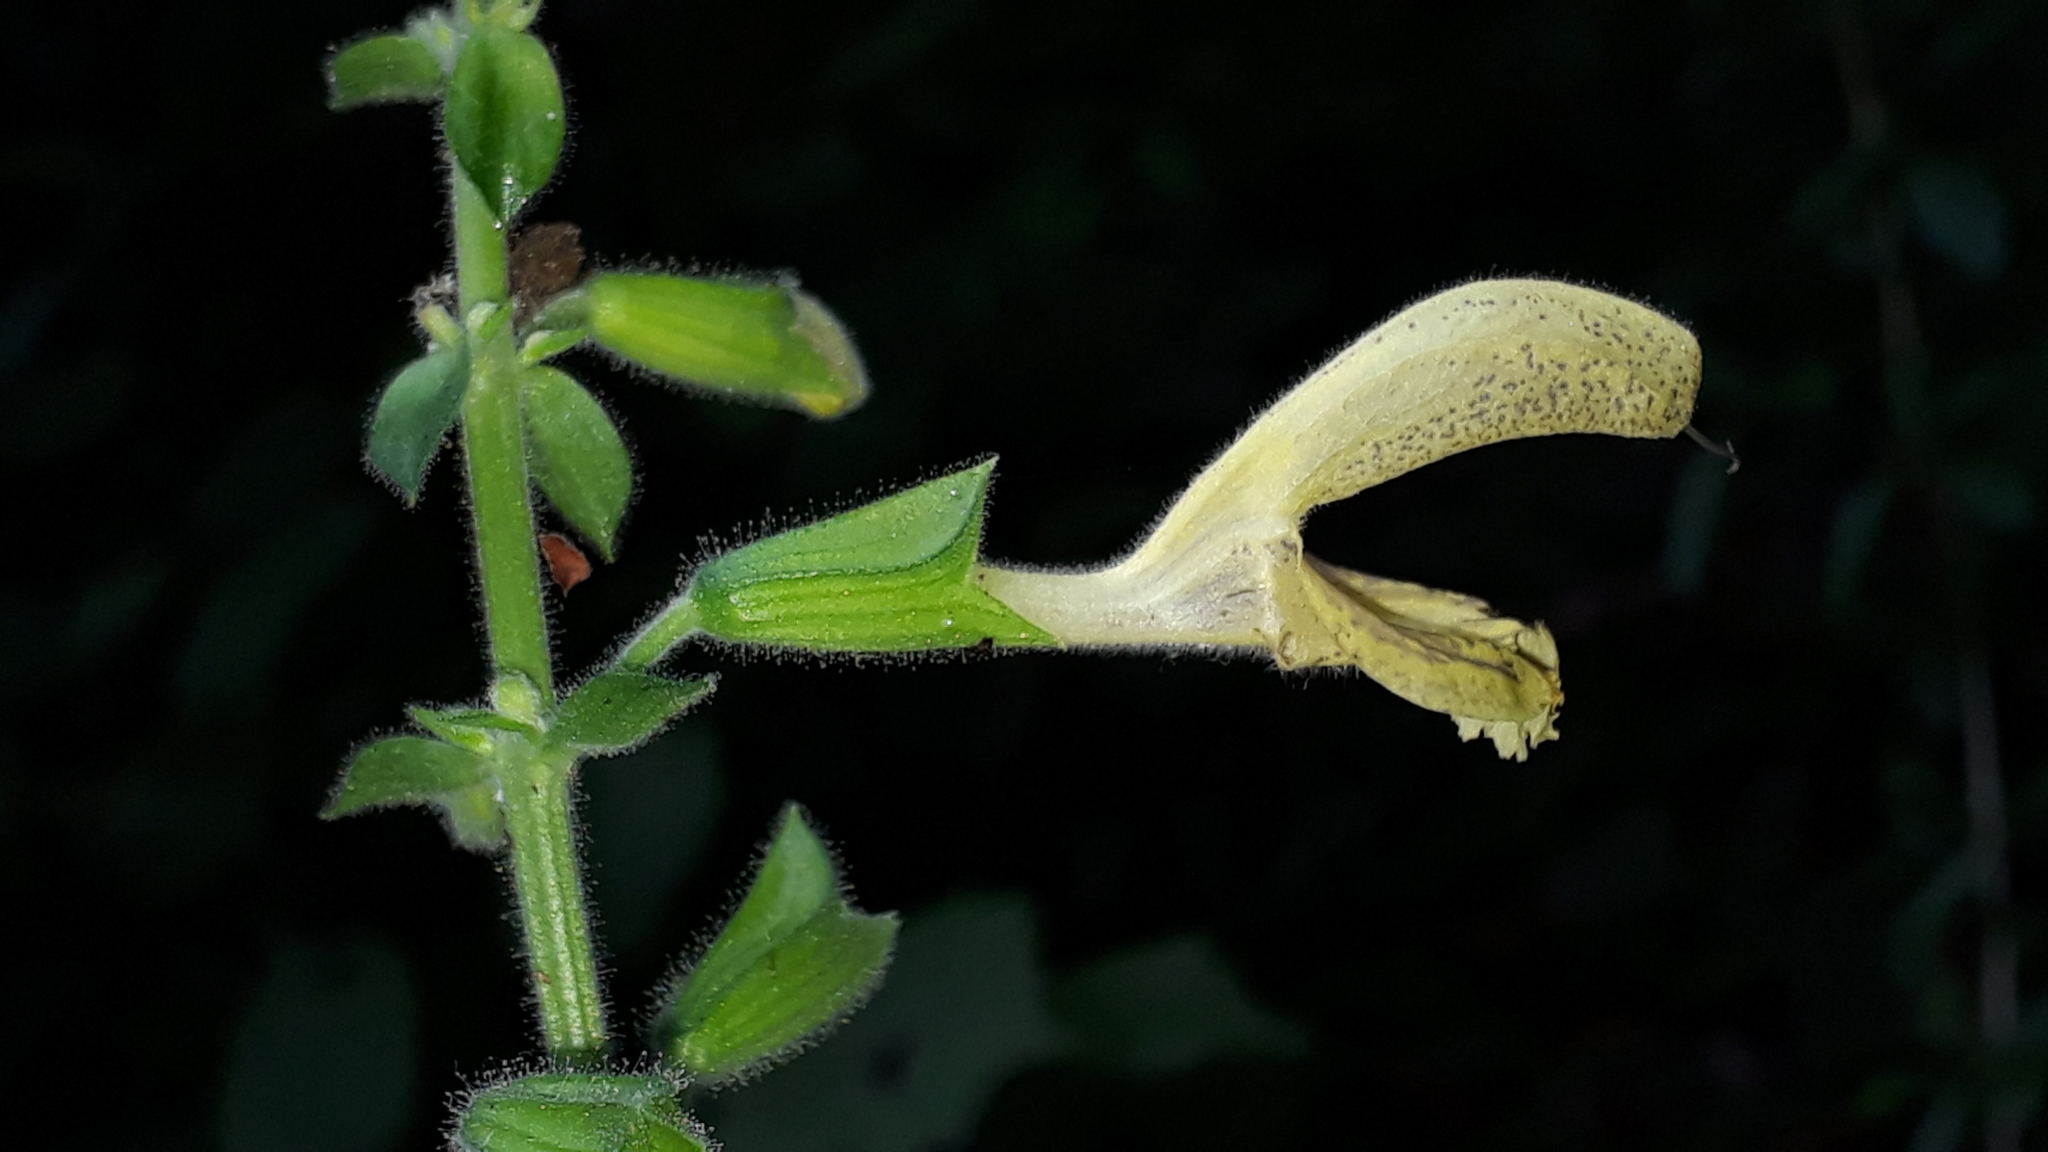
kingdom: Plantae
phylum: Tracheophyta
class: Magnoliopsida
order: Lamiales
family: Lamiaceae
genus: Salvia
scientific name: Salvia glutinosa
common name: Sticky clary
